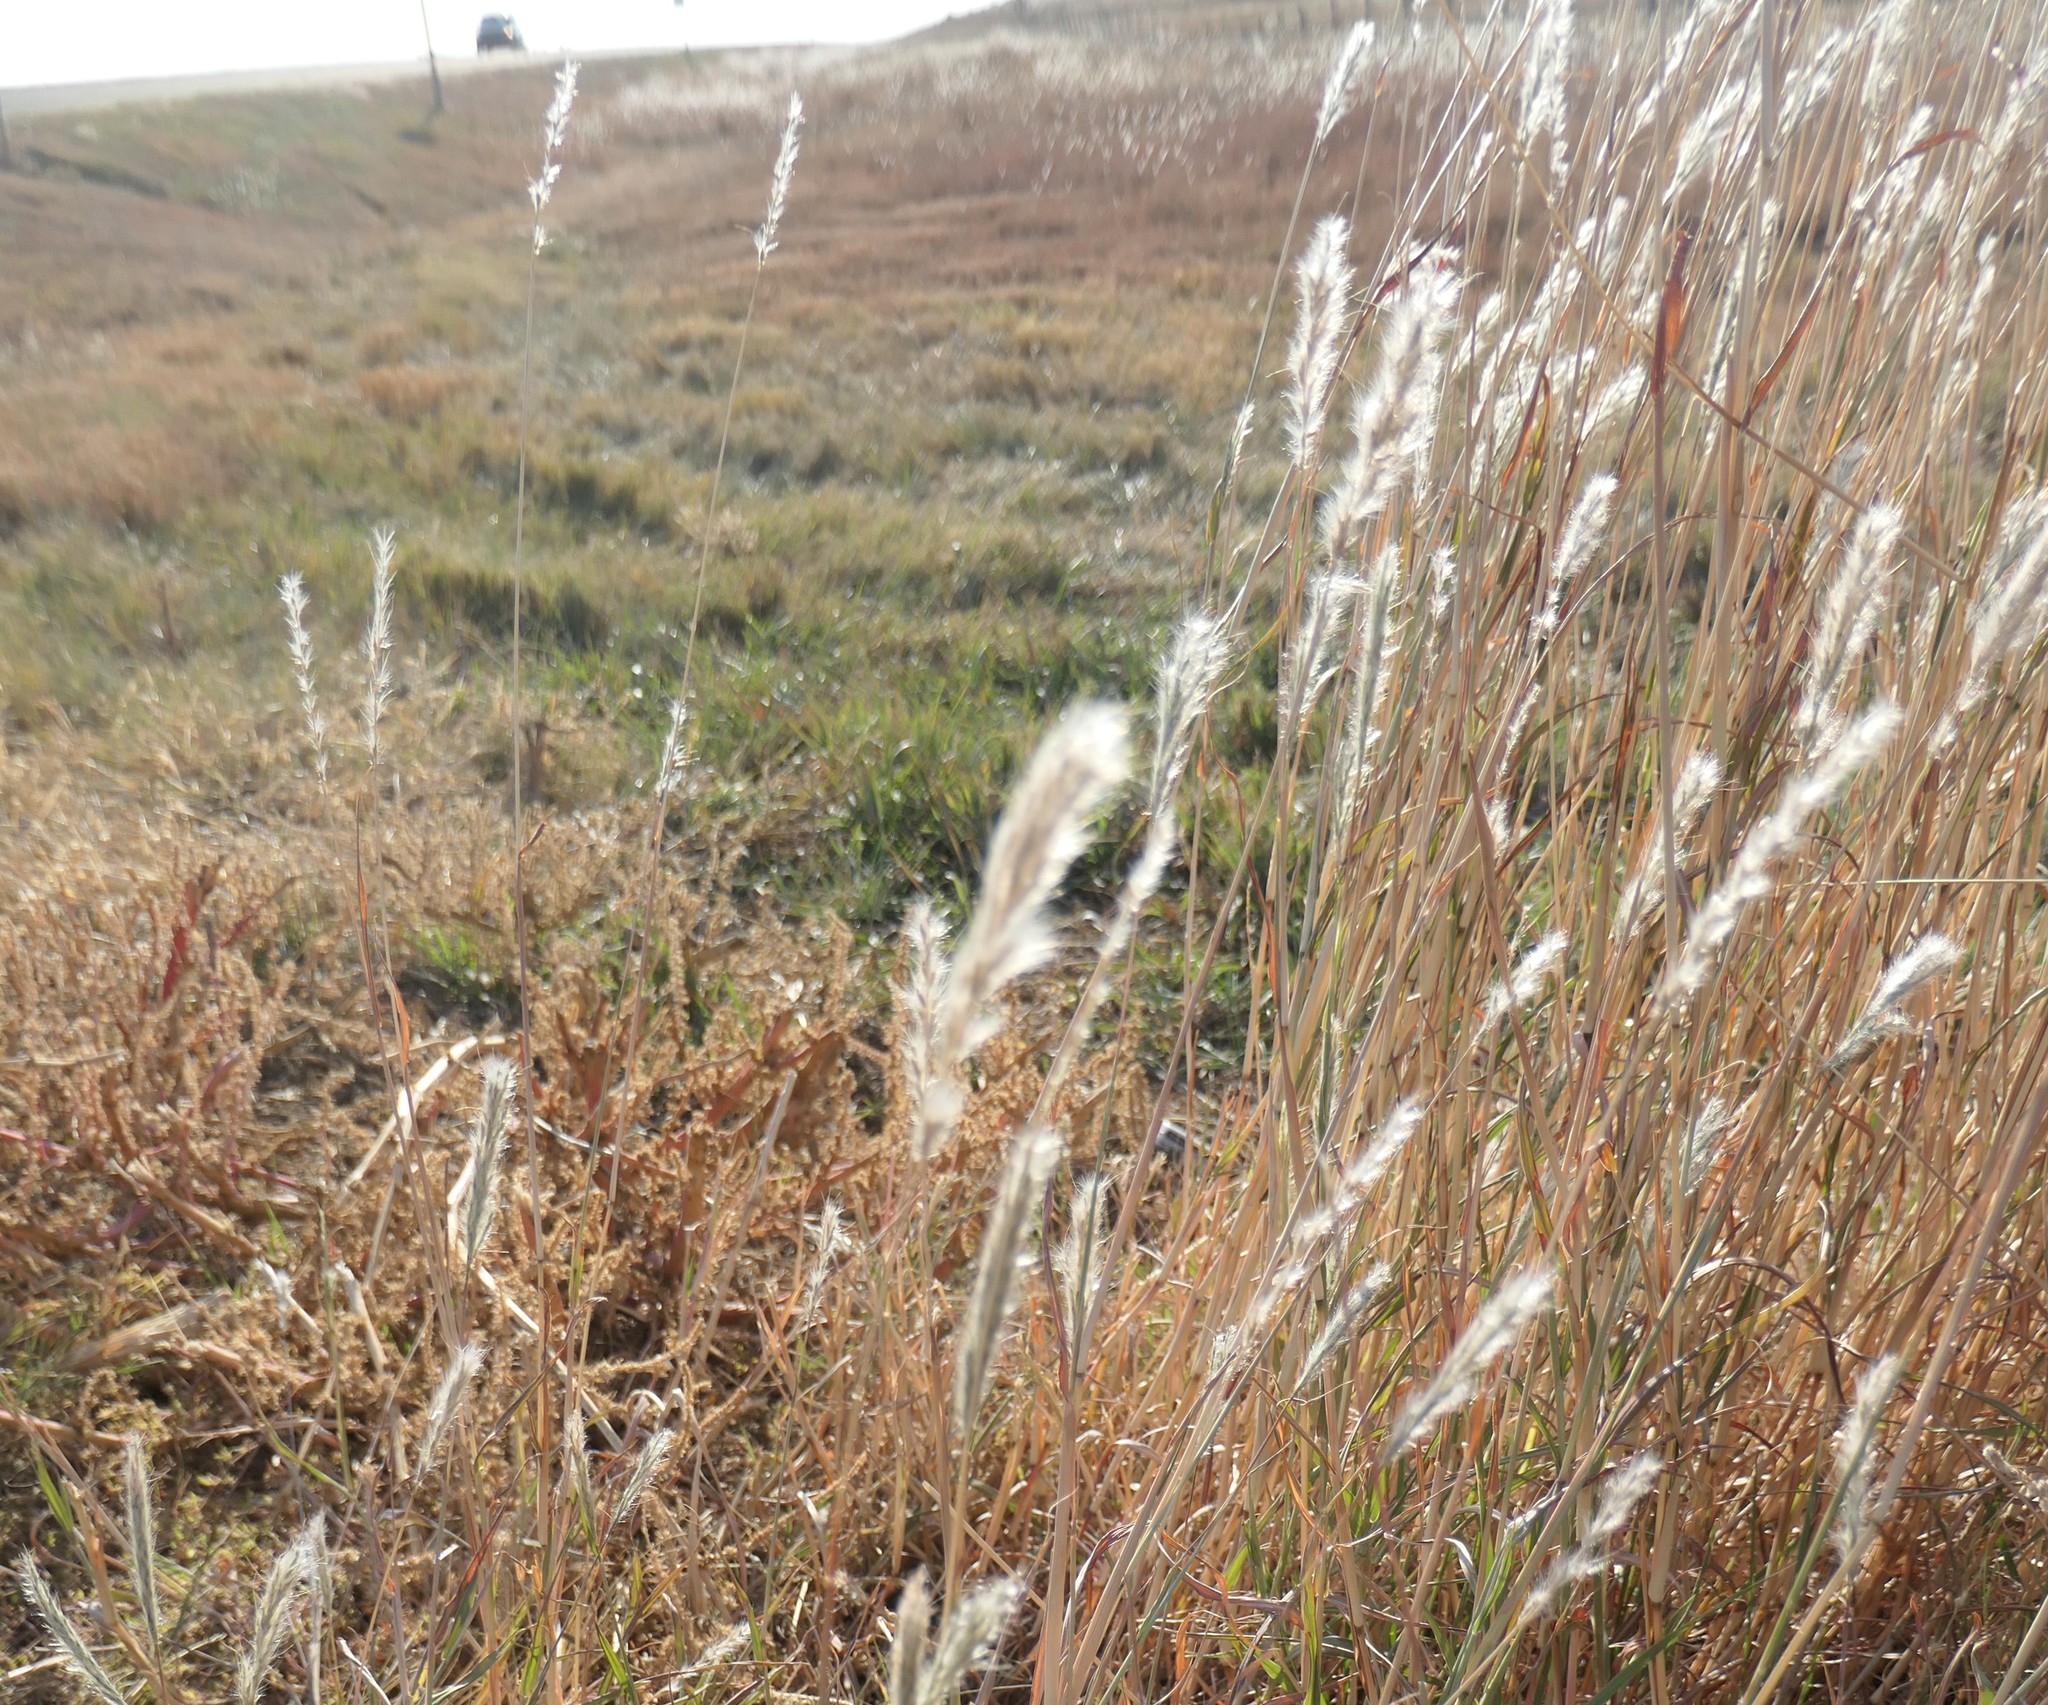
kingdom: Plantae
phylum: Tracheophyta
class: Liliopsida
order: Poales
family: Poaceae
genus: Bothriochloa
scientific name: Bothriochloa torreyana
